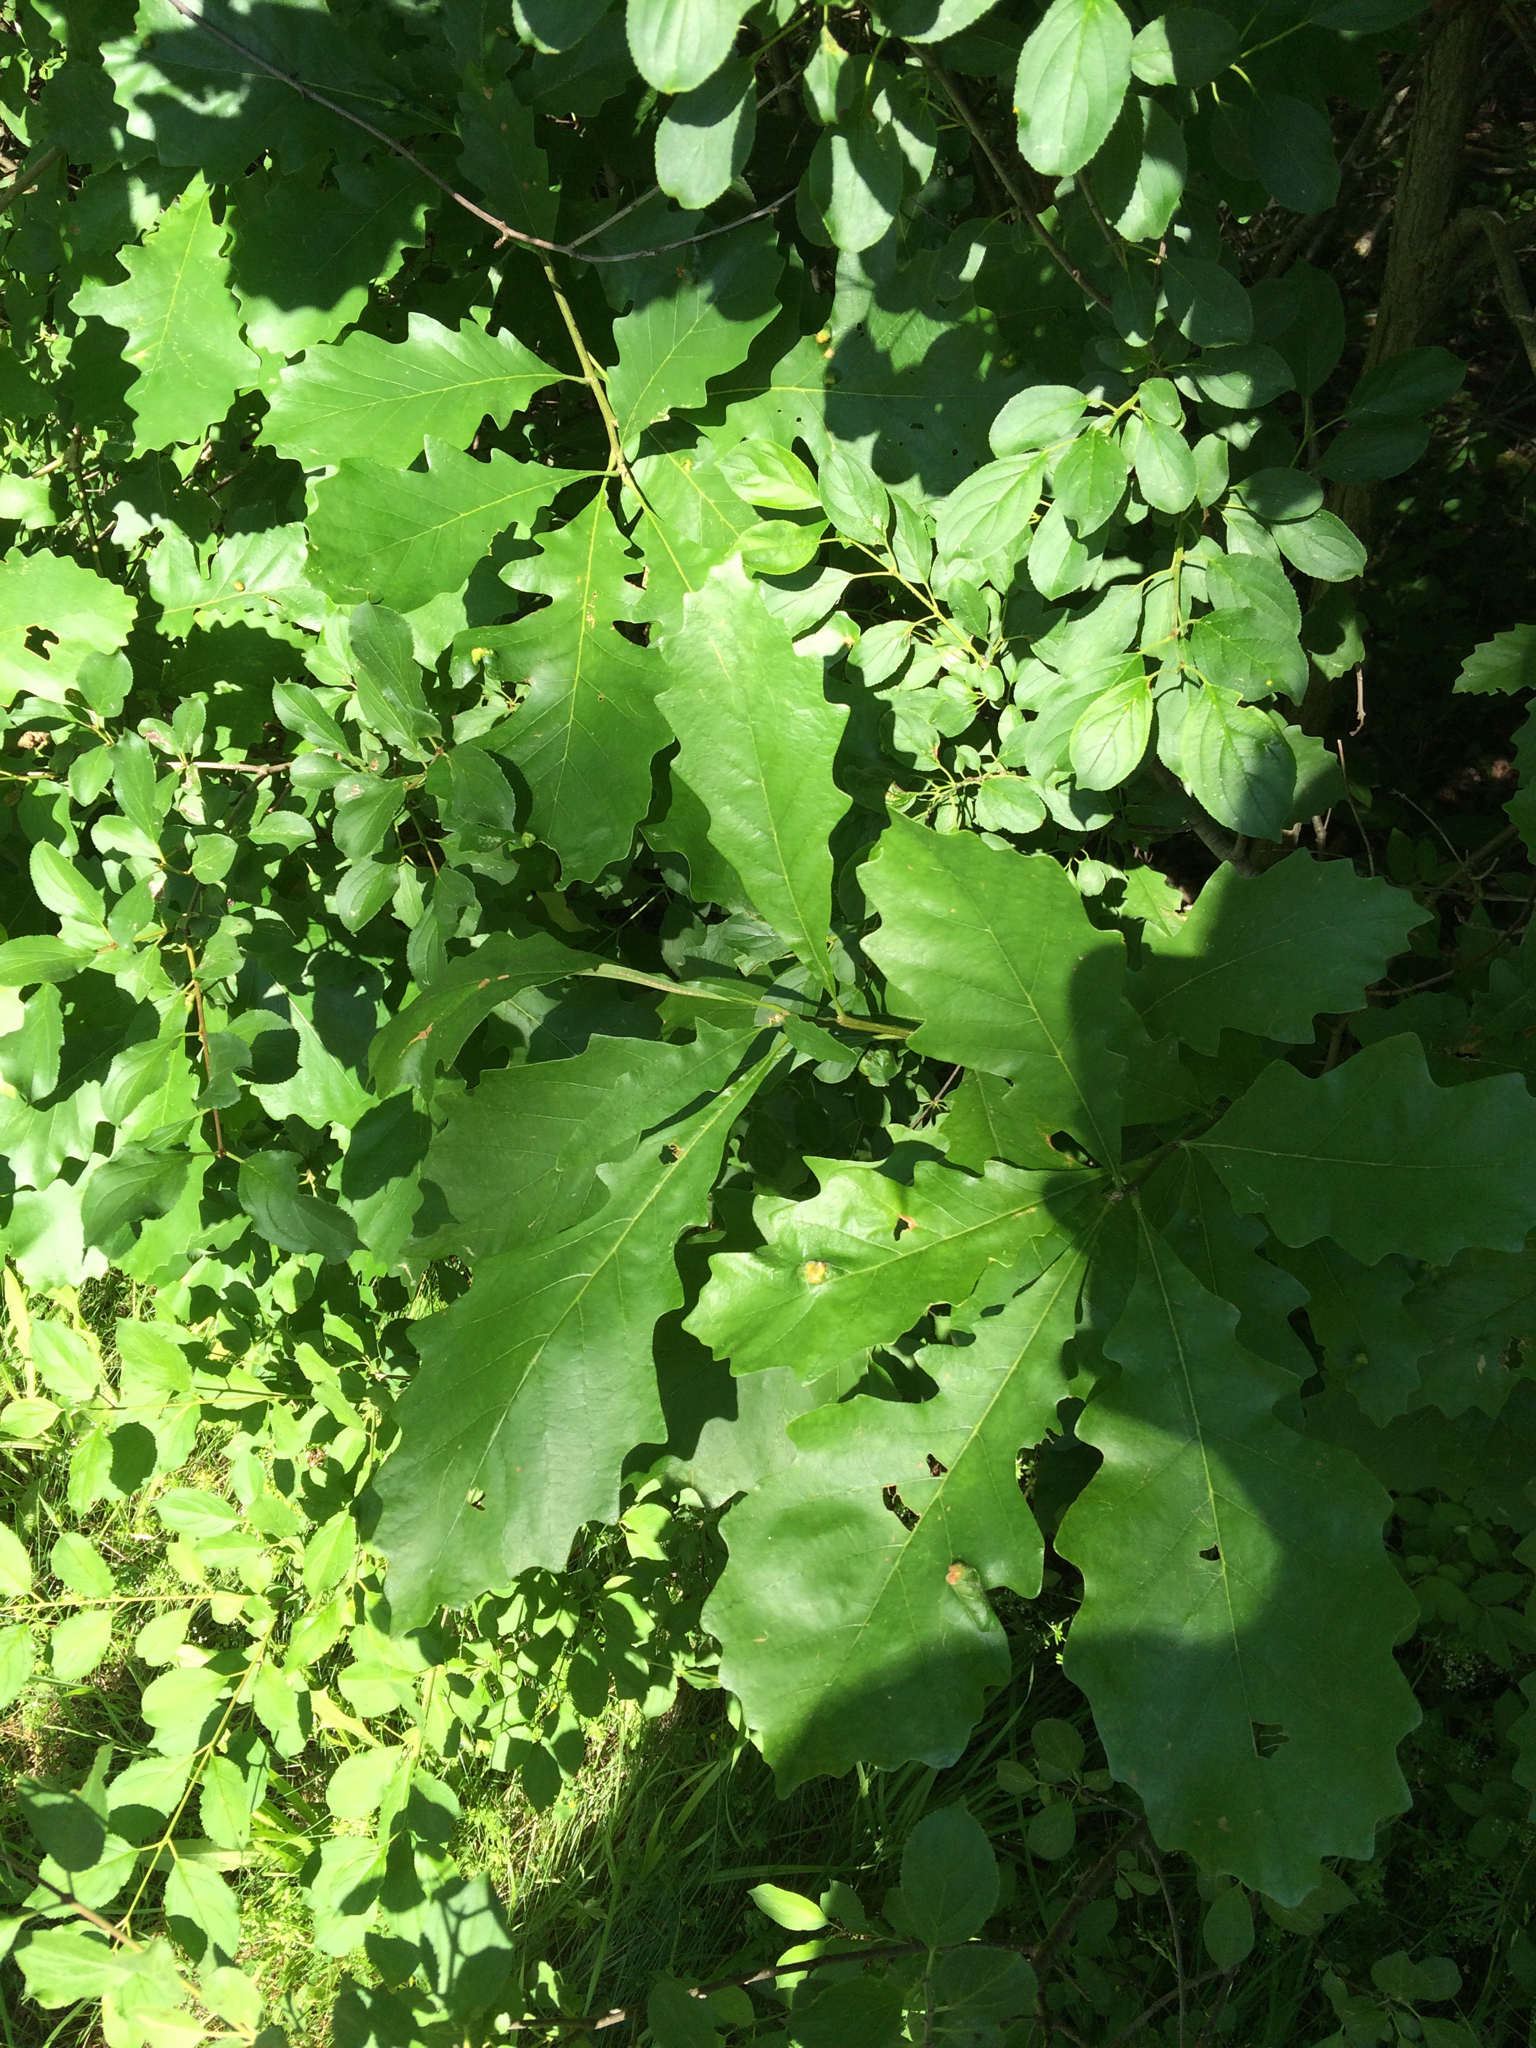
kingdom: Plantae
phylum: Tracheophyta
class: Magnoliopsida
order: Fagales
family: Fagaceae
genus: Quercus
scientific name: Quercus macrocarpa
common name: Bur oak
